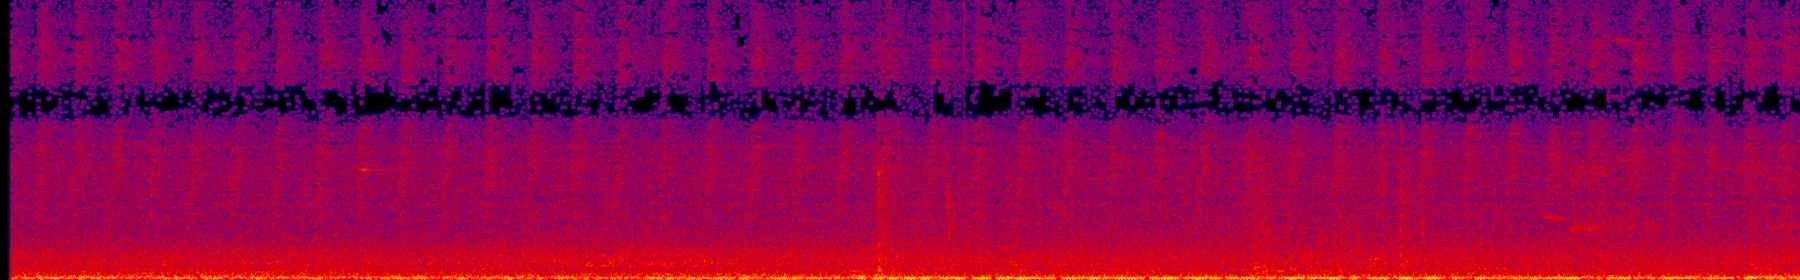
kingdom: Animalia
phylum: Arthropoda
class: Insecta
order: Hemiptera
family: Cicadidae
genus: Cryptotympana
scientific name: Cryptotympana takasagona
